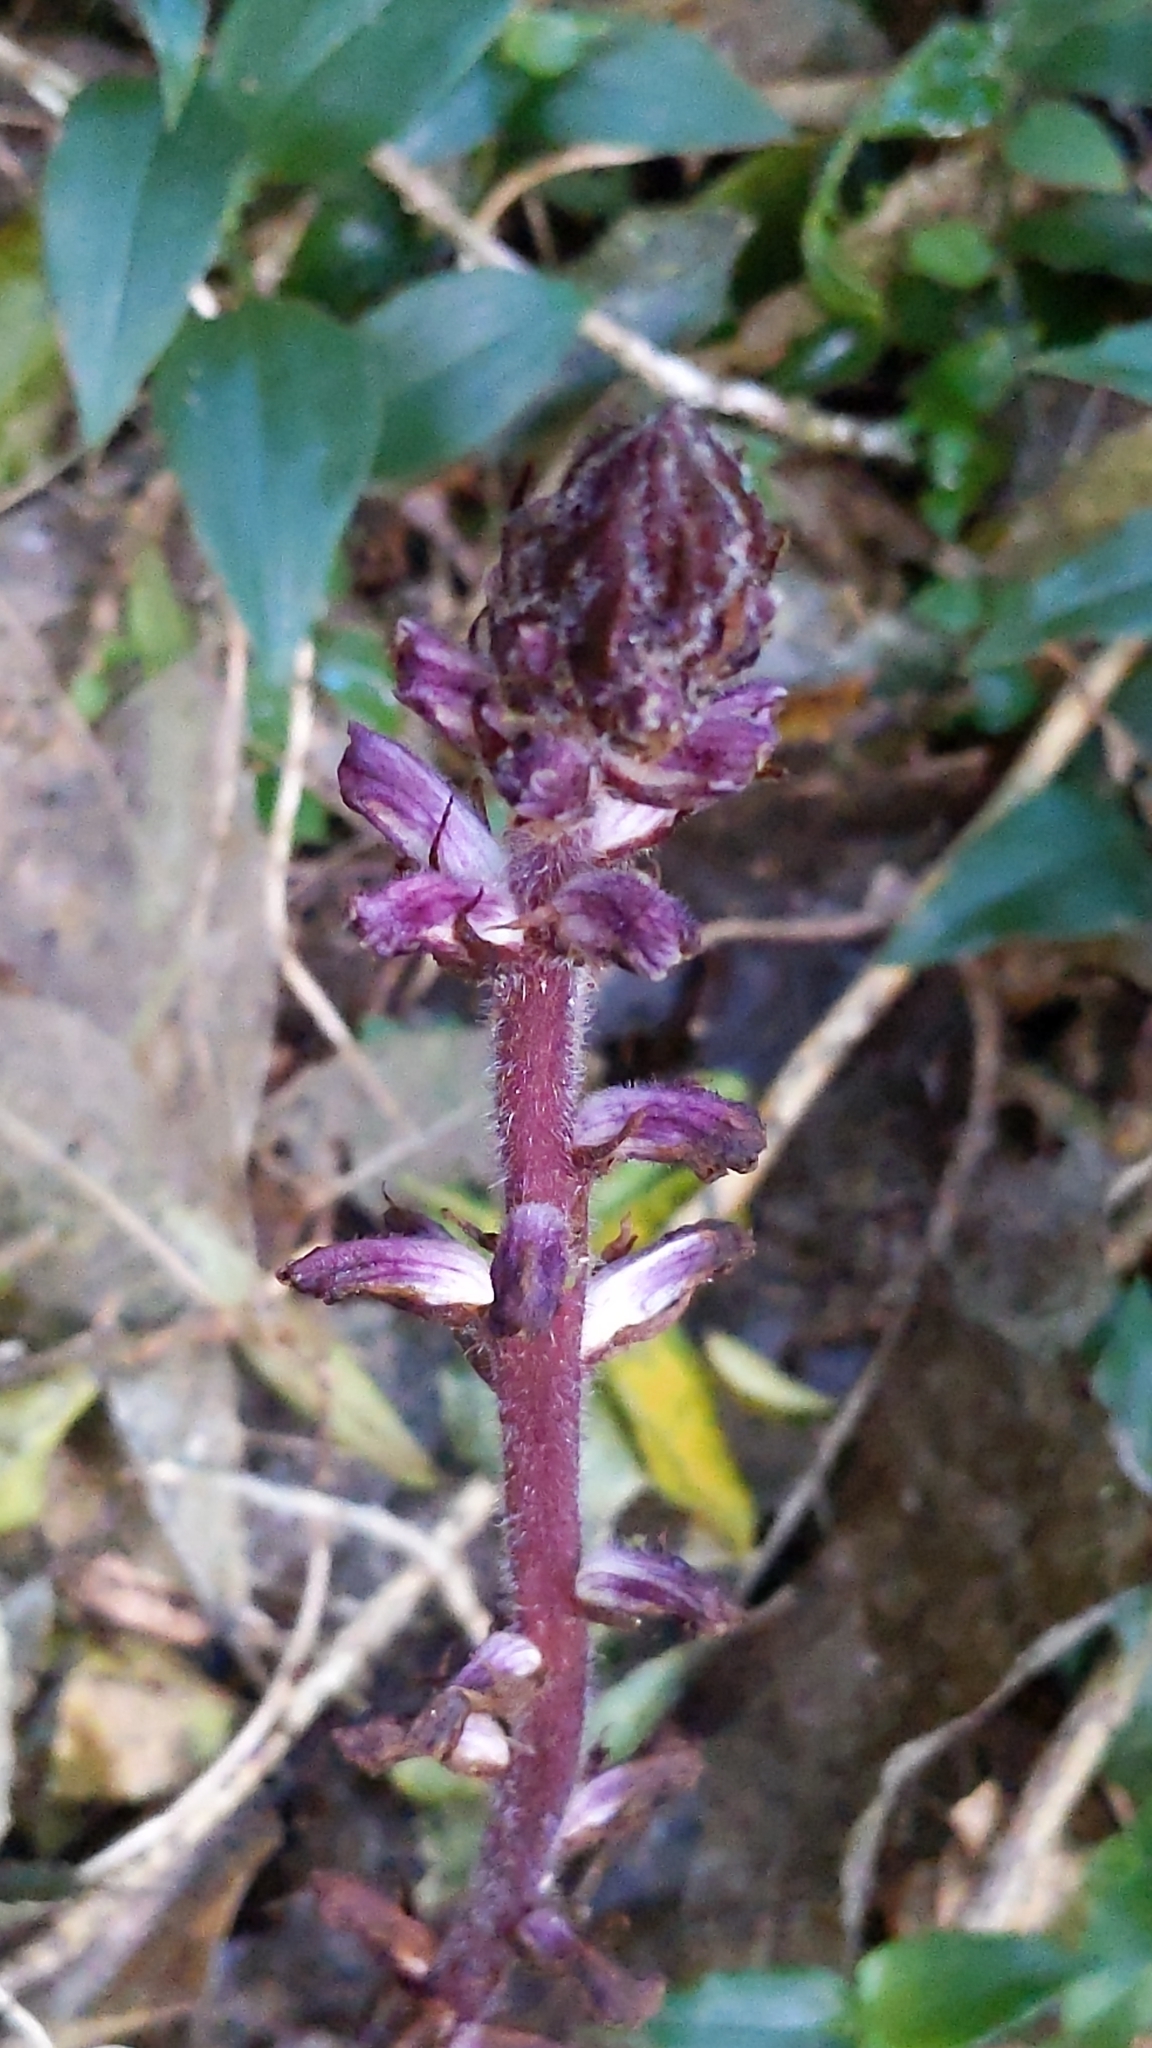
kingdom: Plantae
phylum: Tracheophyta
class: Magnoliopsida
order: Lamiales
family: Orobanchaceae
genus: Orobanche
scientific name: Orobanche minor
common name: Common broomrape
